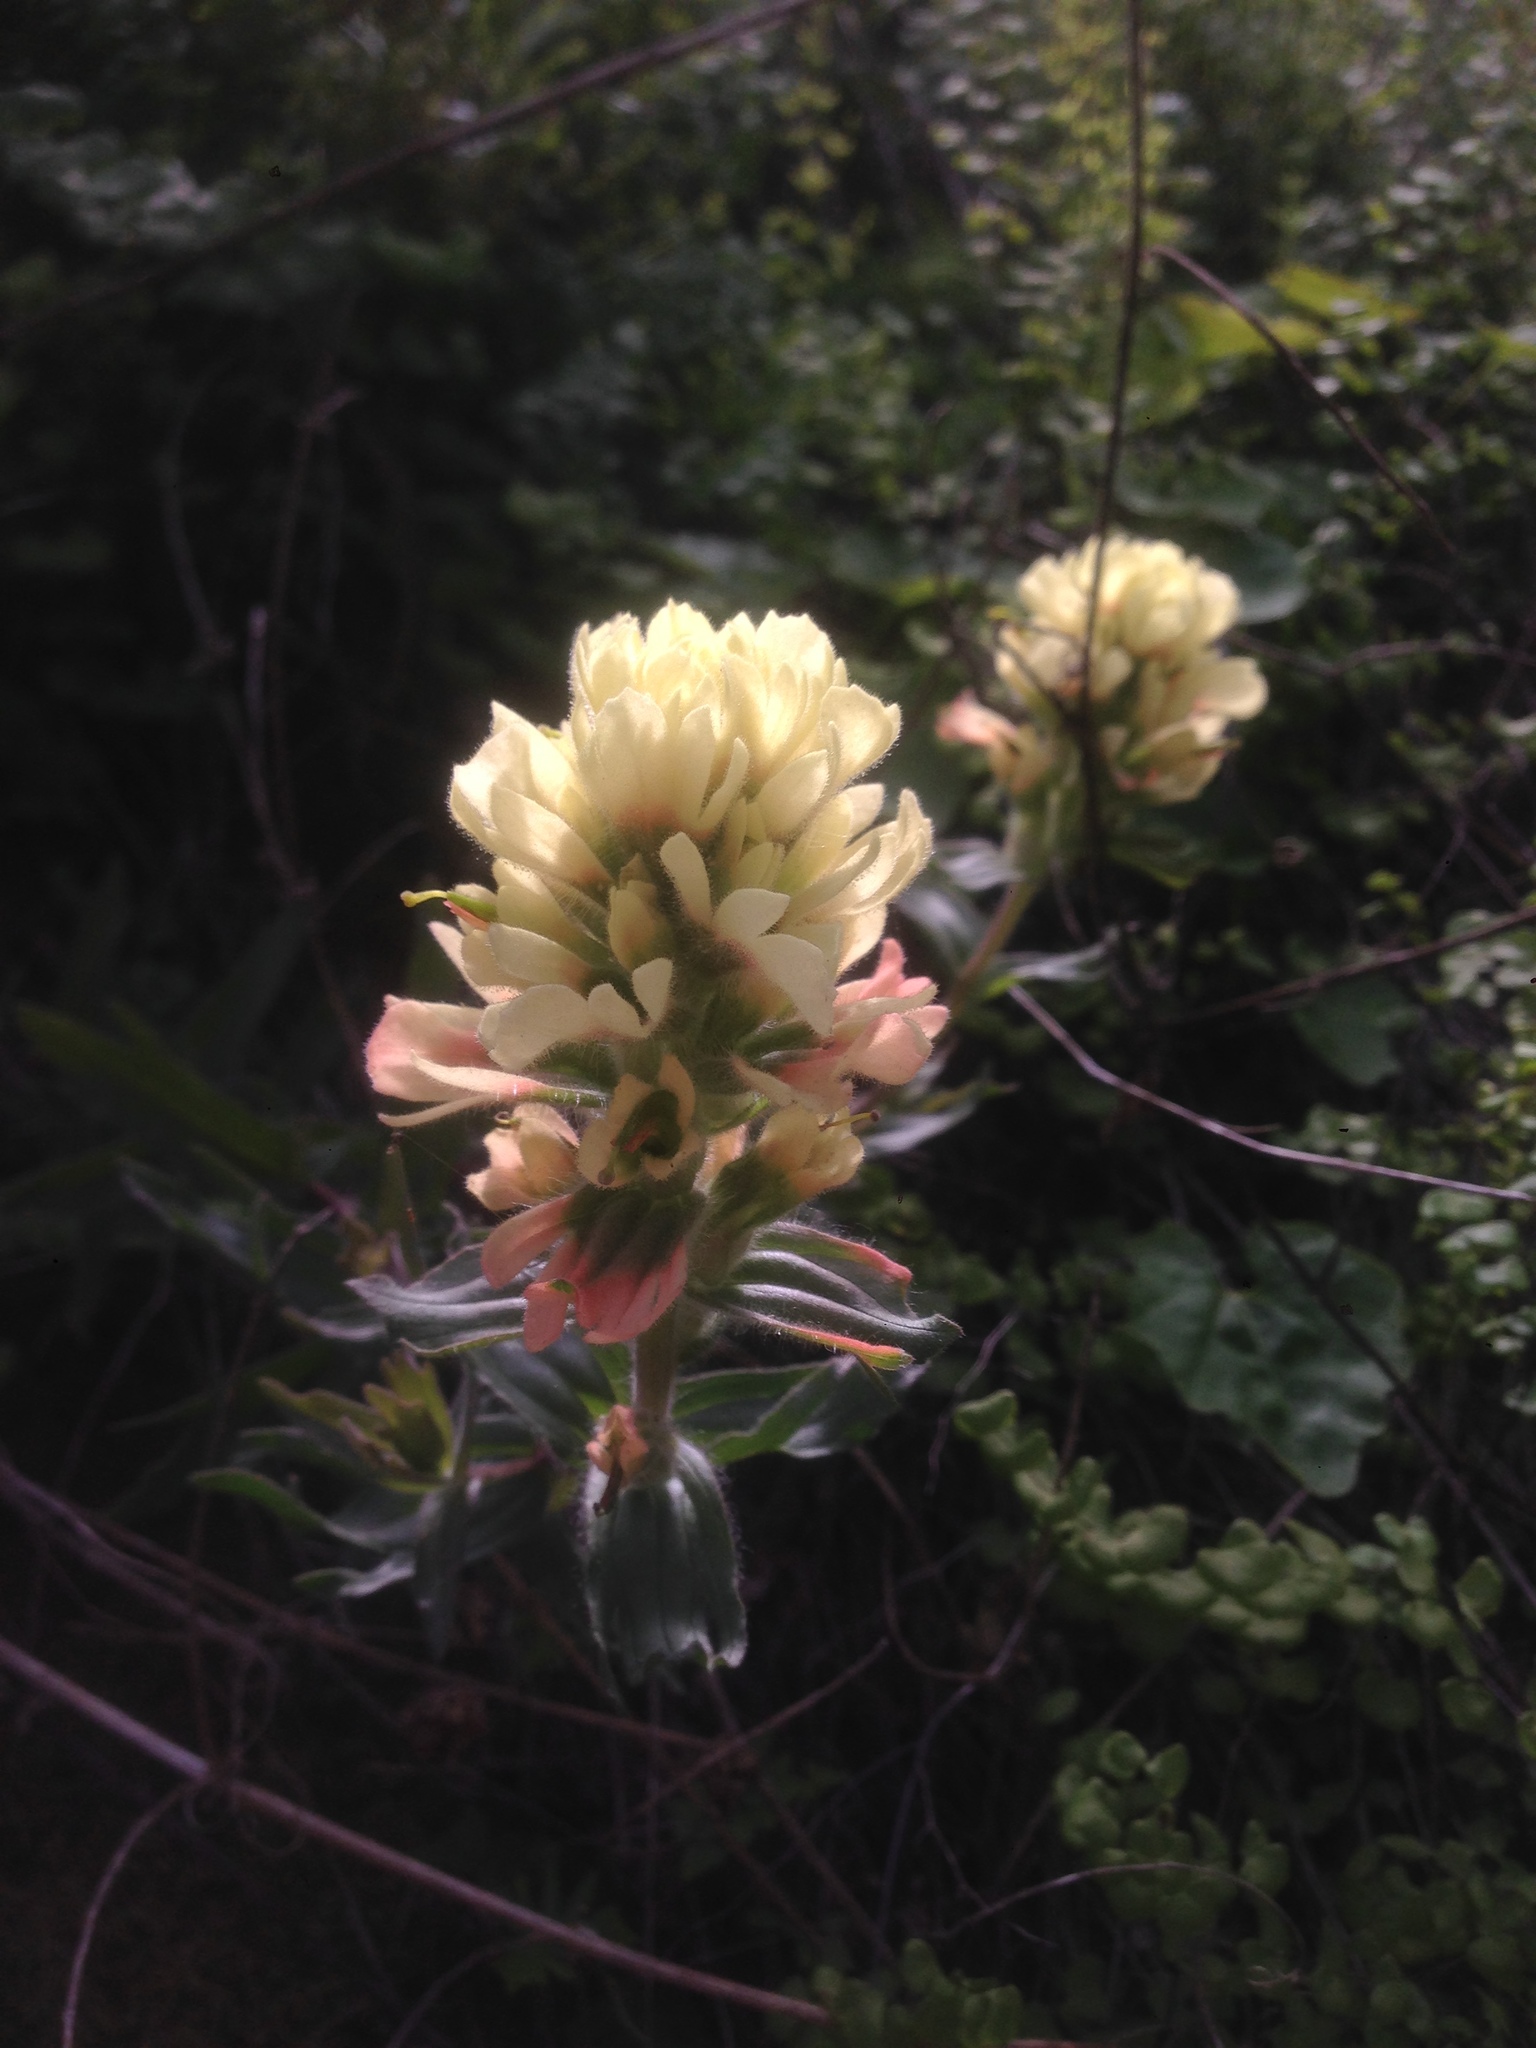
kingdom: Plantae
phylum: Tracheophyta
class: Magnoliopsida
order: Lamiales
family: Orobanchaceae
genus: Castilleja
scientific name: Castilleja affinis
